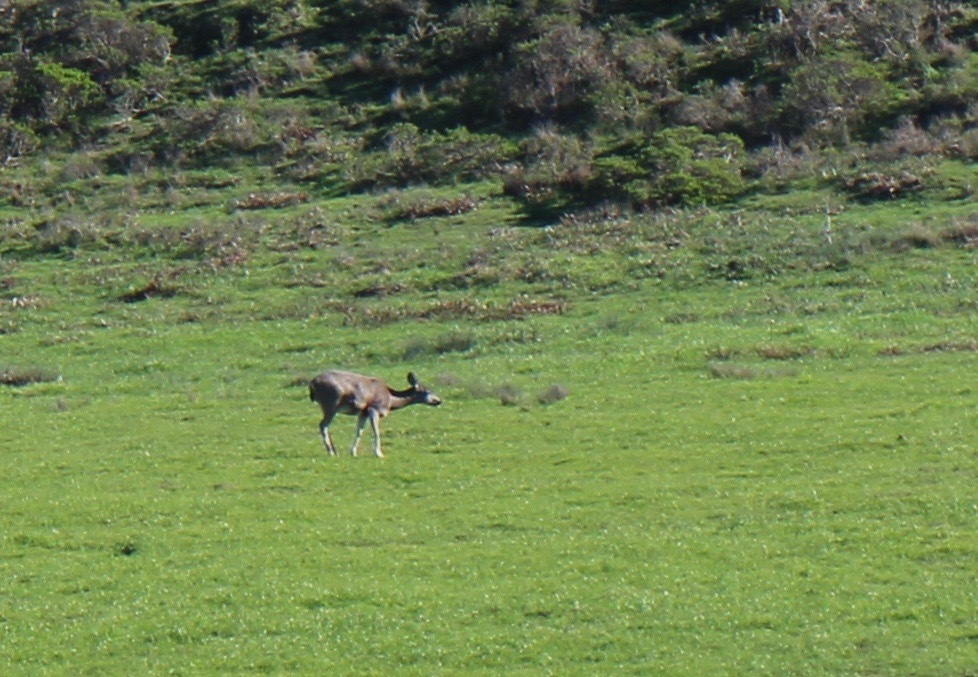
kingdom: Animalia
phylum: Chordata
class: Mammalia
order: Artiodactyla
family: Cervidae
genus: Odocoileus
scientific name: Odocoileus hemionus
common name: Mule deer
